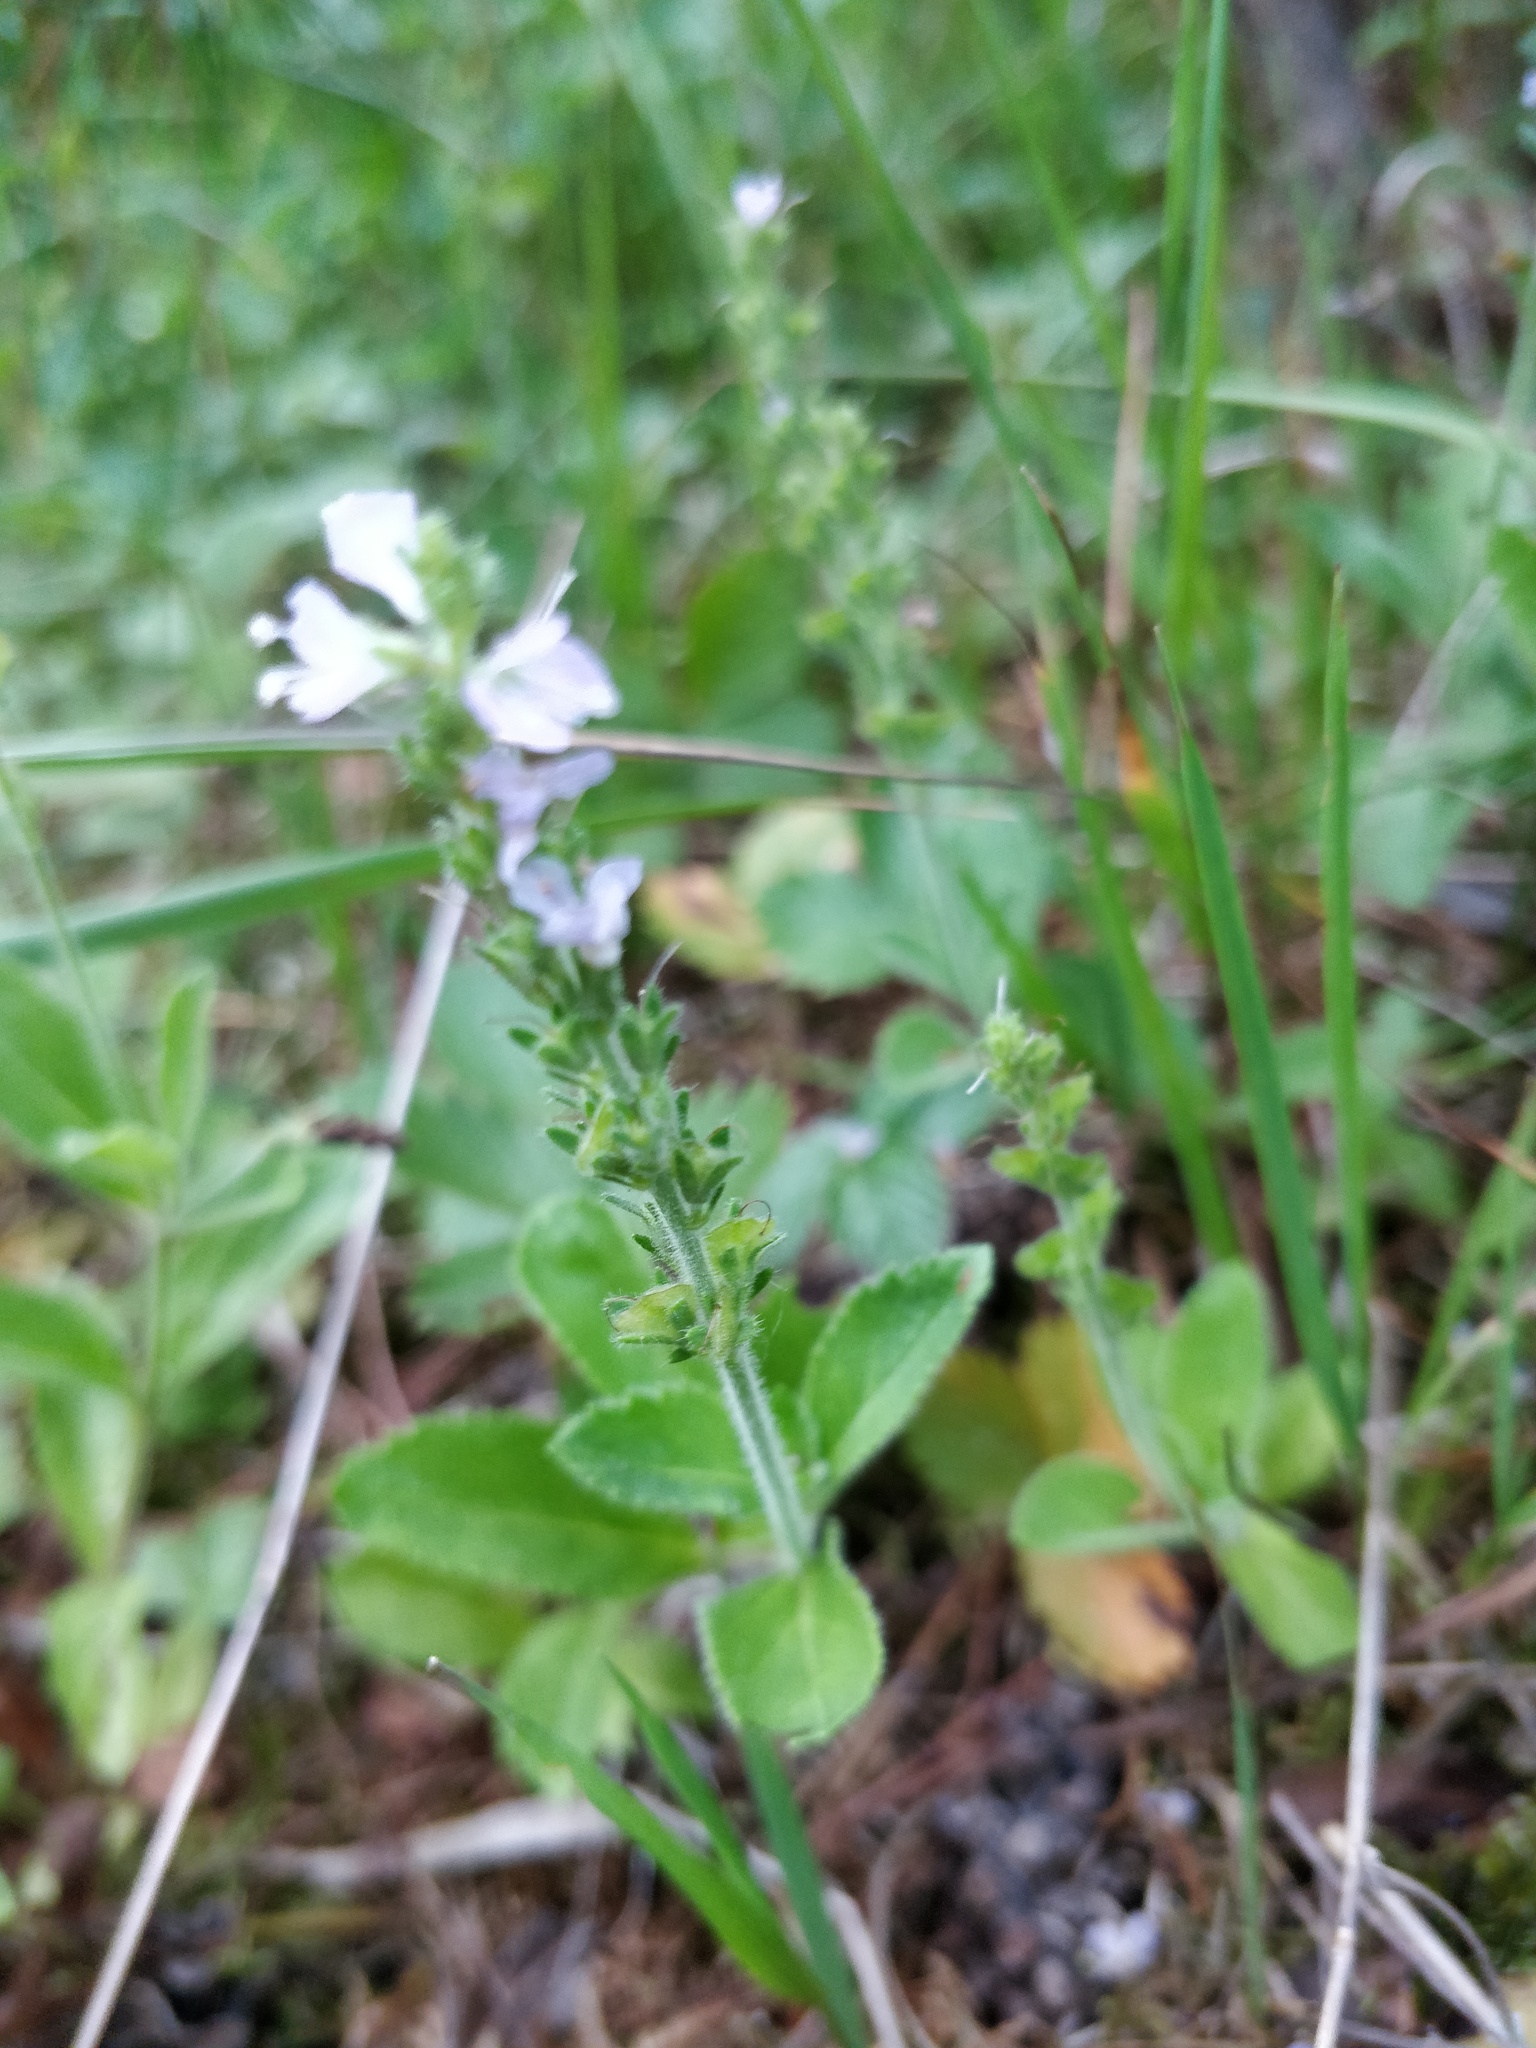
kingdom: Plantae
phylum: Tracheophyta
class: Magnoliopsida
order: Lamiales
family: Plantaginaceae
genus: Veronica
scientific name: Veronica officinalis
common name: Common speedwell
